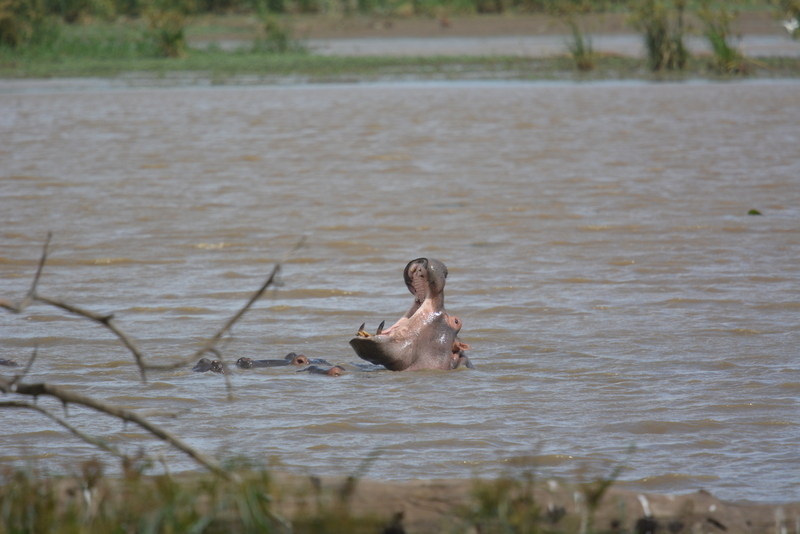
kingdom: Animalia
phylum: Chordata
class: Mammalia
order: Artiodactyla
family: Hippopotamidae
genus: Hippopotamus
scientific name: Hippopotamus amphibius
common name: Common hippopotamus
